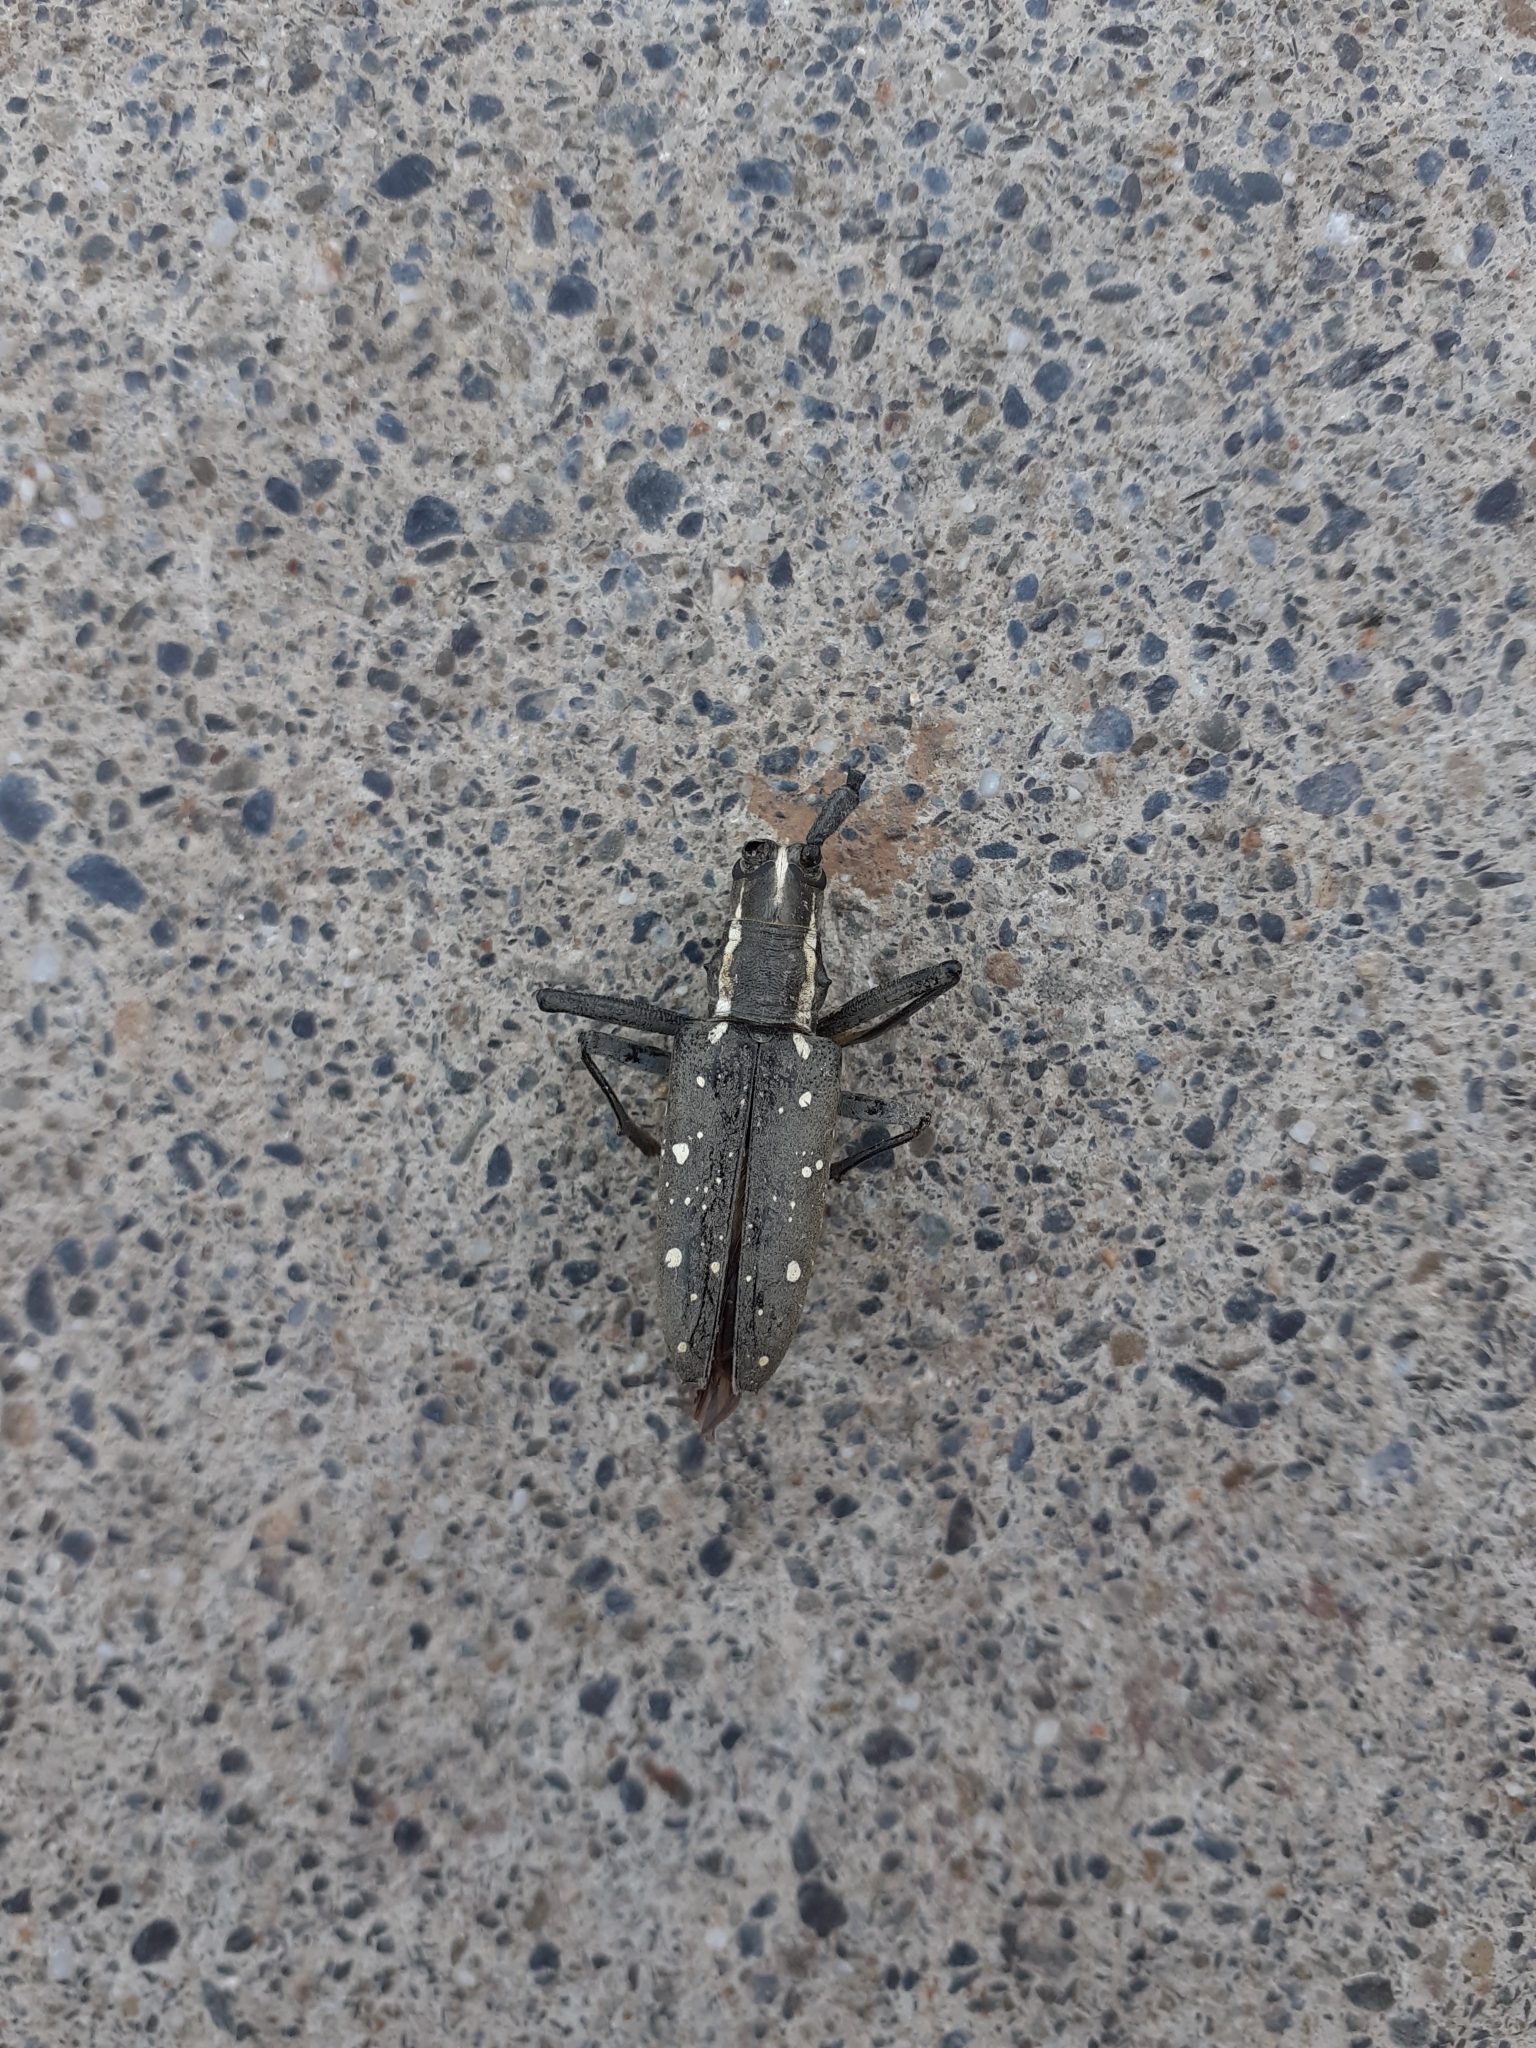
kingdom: Animalia
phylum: Arthropoda
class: Insecta
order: Coleoptera
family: Cerambycidae
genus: Psacothea
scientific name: Psacothea hilaris
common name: Yellow-spotted longicorn beetle
